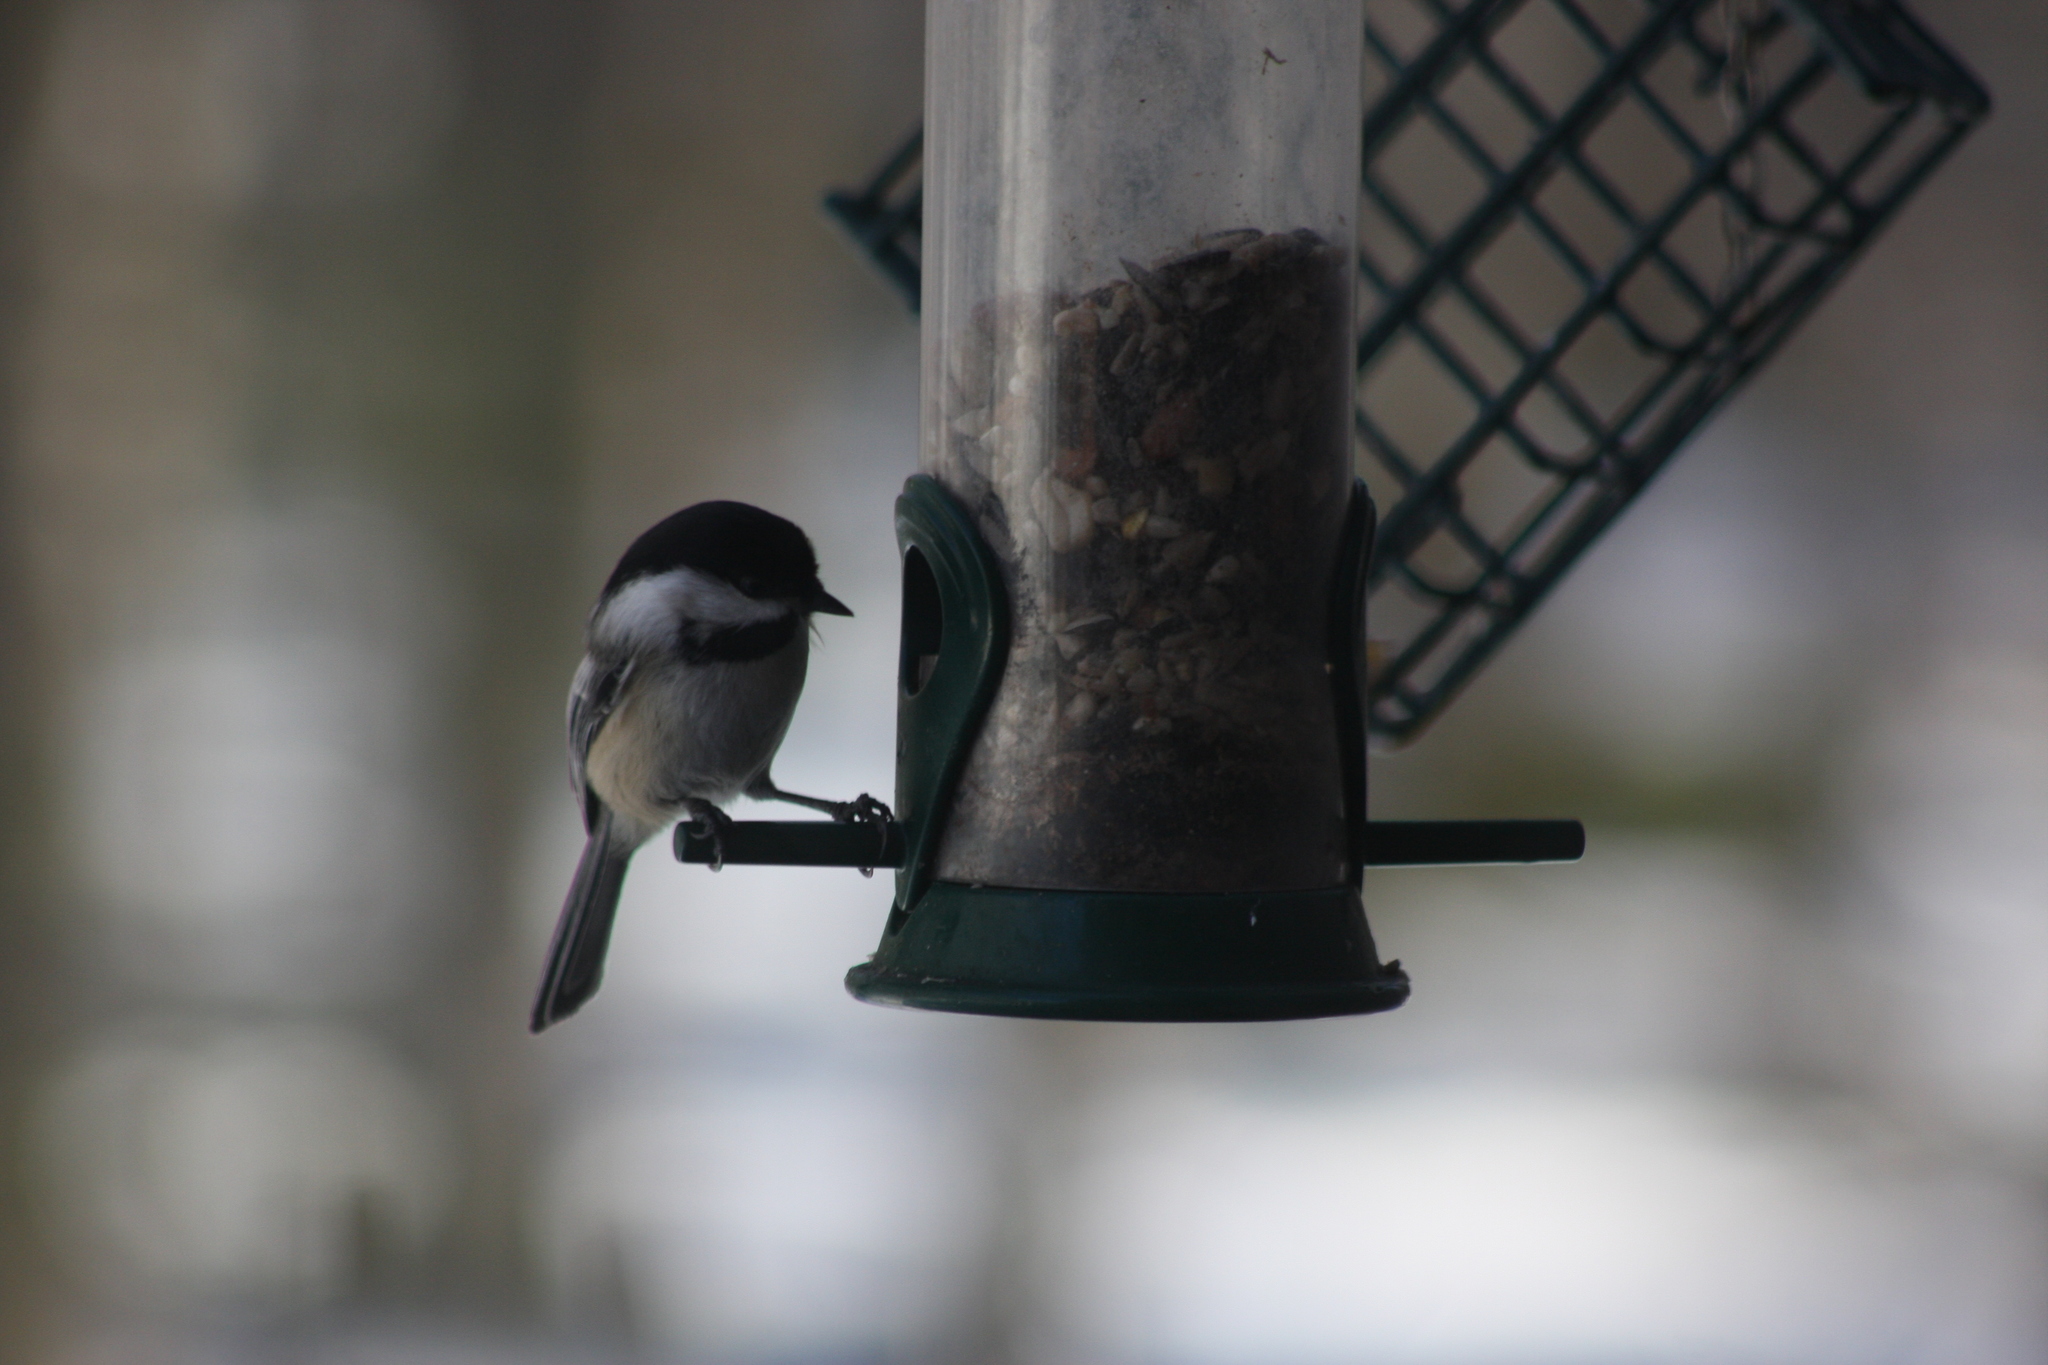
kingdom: Animalia
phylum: Chordata
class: Aves
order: Passeriformes
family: Paridae
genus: Poecile
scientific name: Poecile atricapillus
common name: Black-capped chickadee
